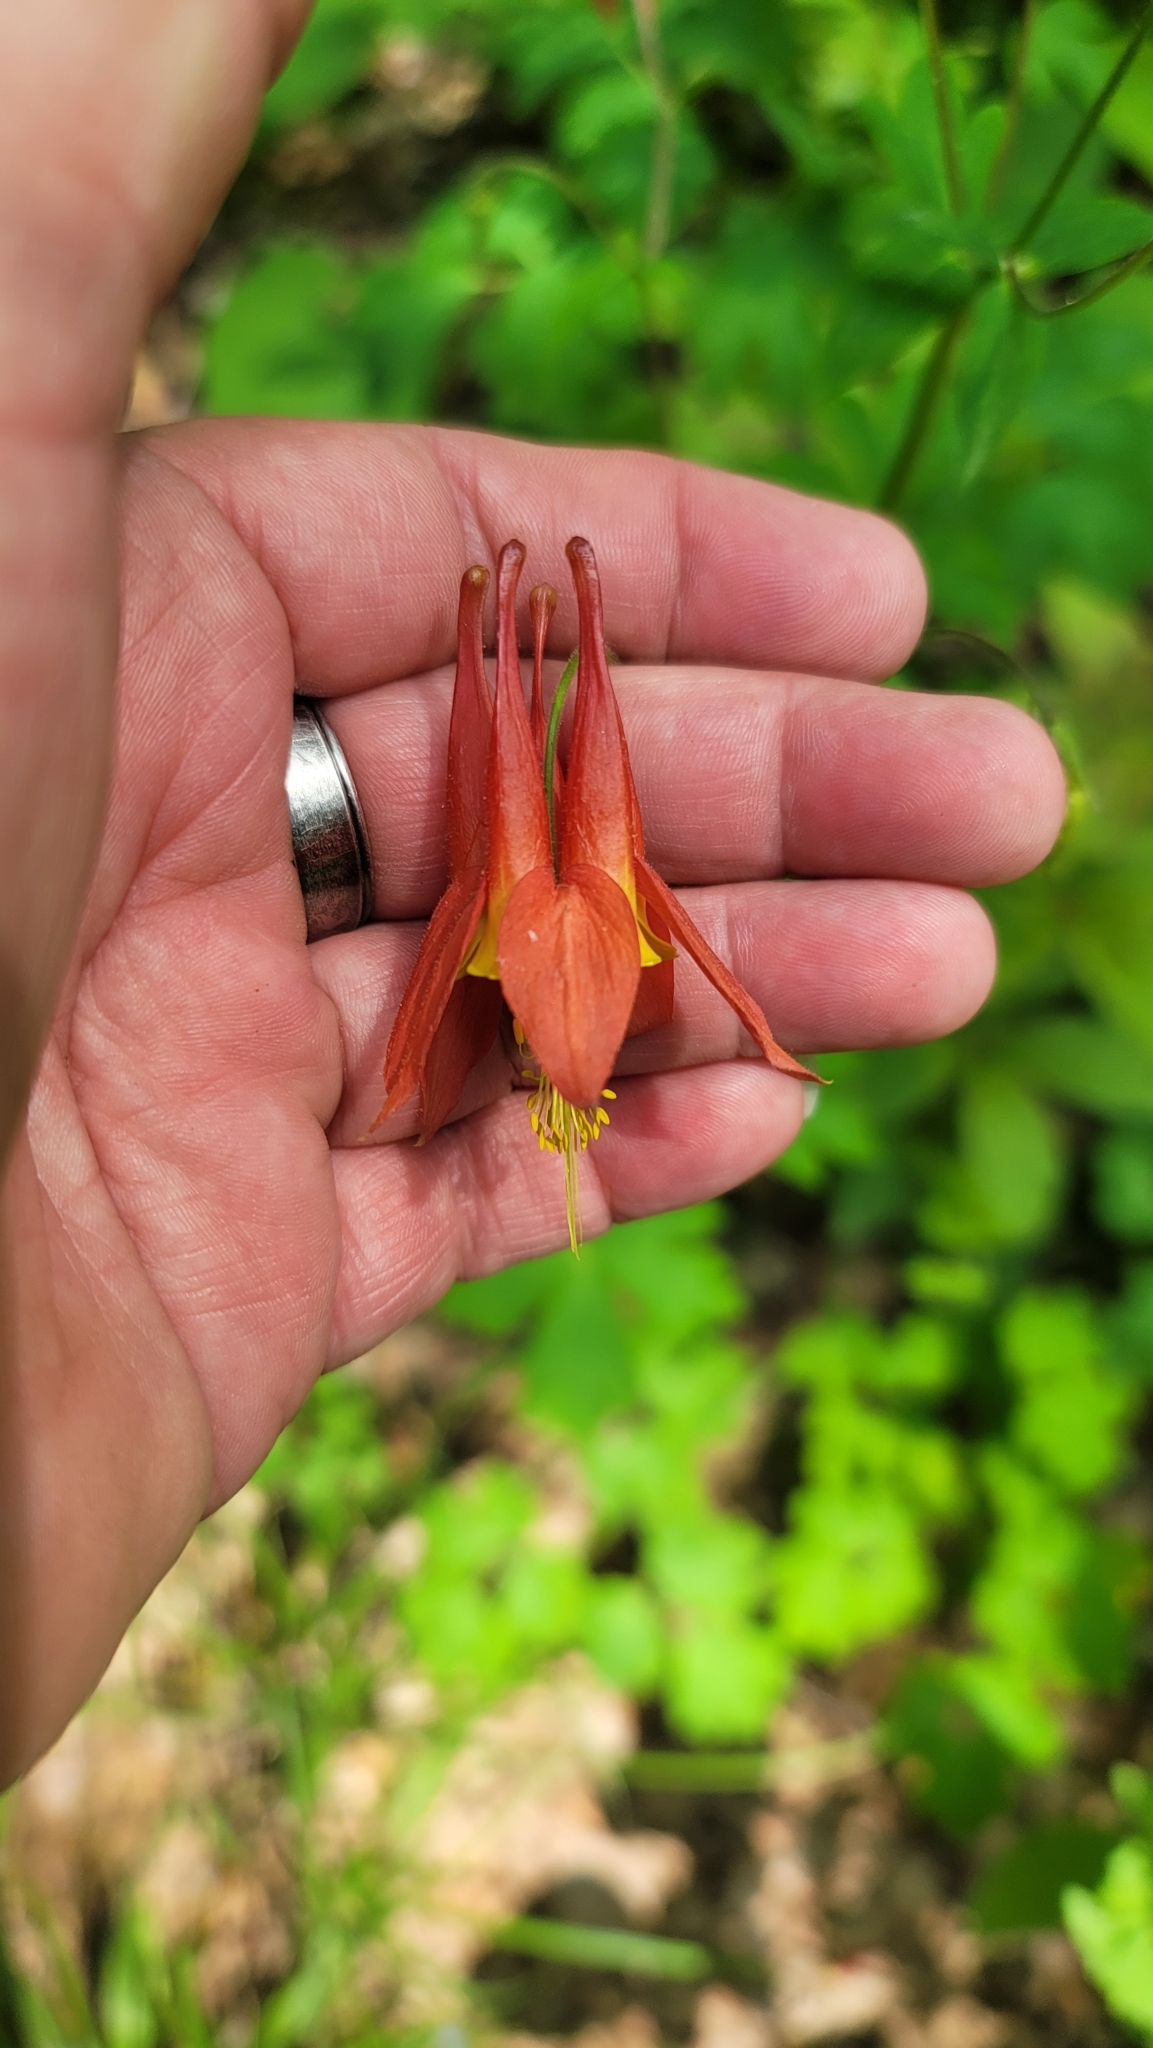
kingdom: Plantae
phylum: Tracheophyta
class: Magnoliopsida
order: Ranunculales
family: Ranunculaceae
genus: Aquilegia
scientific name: Aquilegia canadensis
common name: American columbine
